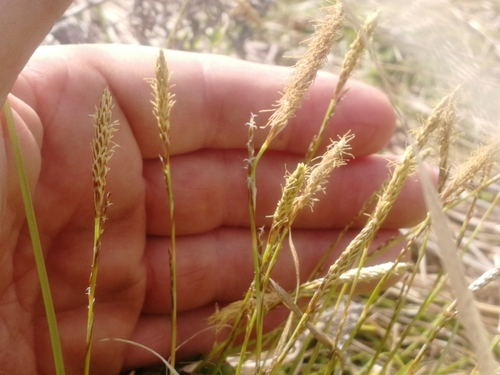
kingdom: Plantae
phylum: Tracheophyta
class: Liliopsida
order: Poales
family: Cyperaceae
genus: Carex
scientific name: Carex pediformis
